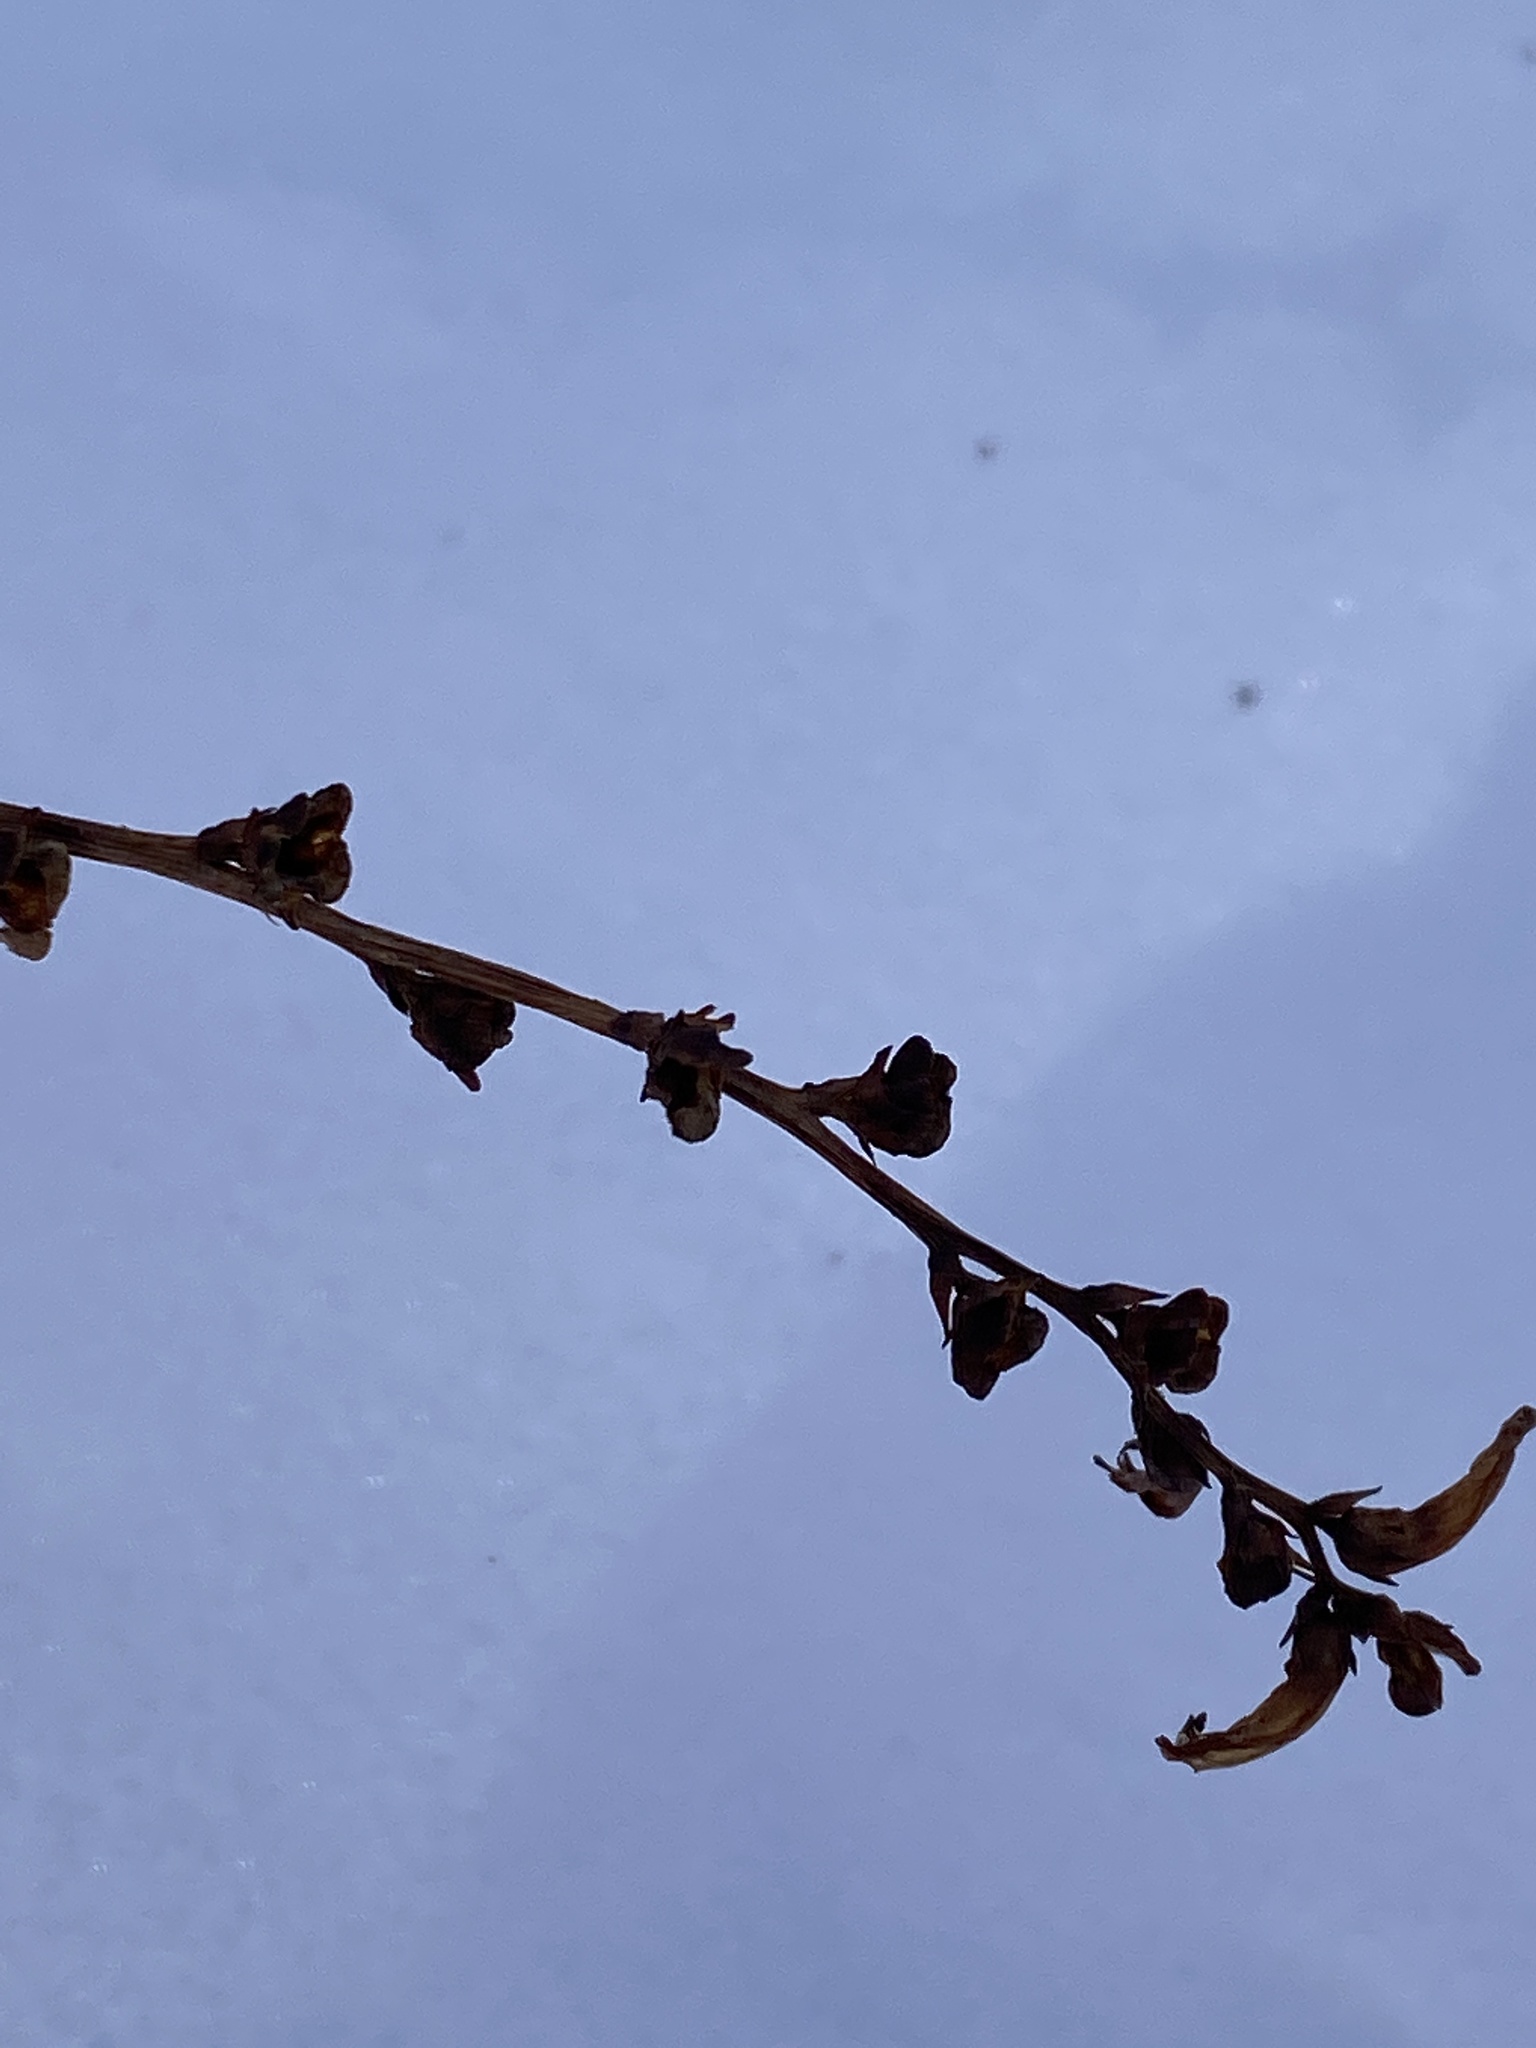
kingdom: Plantae
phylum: Tracheophyta
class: Magnoliopsida
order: Lamiales
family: Orobanchaceae
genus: Epifagus
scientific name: Epifagus virginiana
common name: Beechdrops
